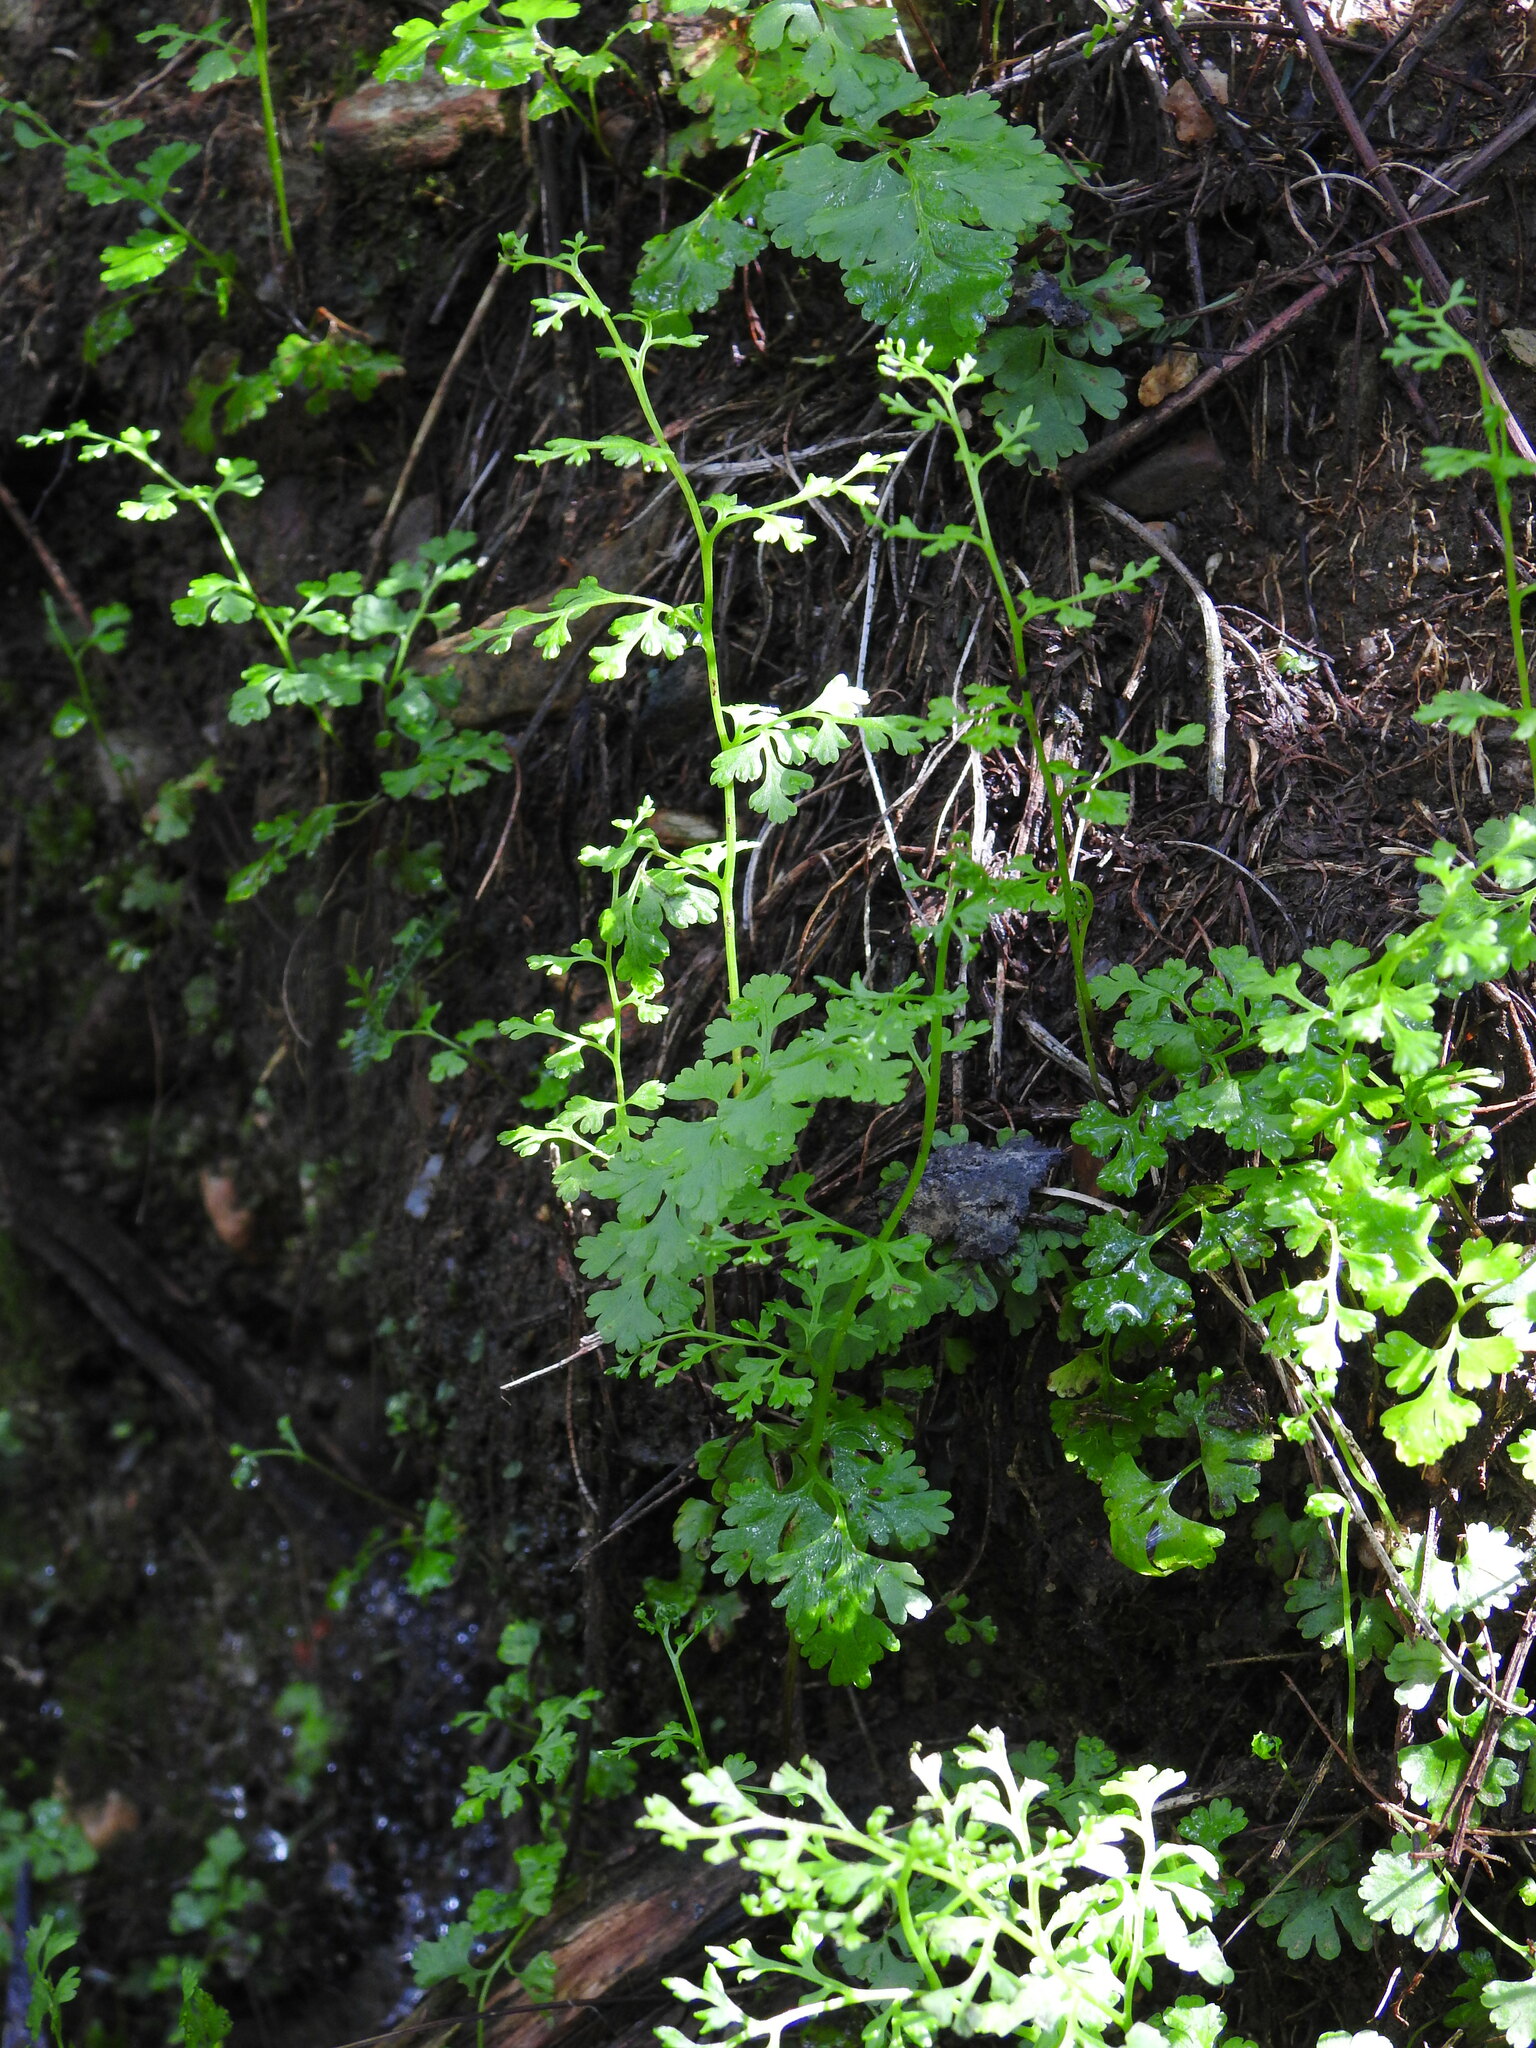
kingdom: Plantae
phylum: Tracheophyta
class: Polypodiopsida
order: Polypodiales
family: Pteridaceae
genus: Anogramma
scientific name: Anogramma leptophylla
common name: Jersey fern
